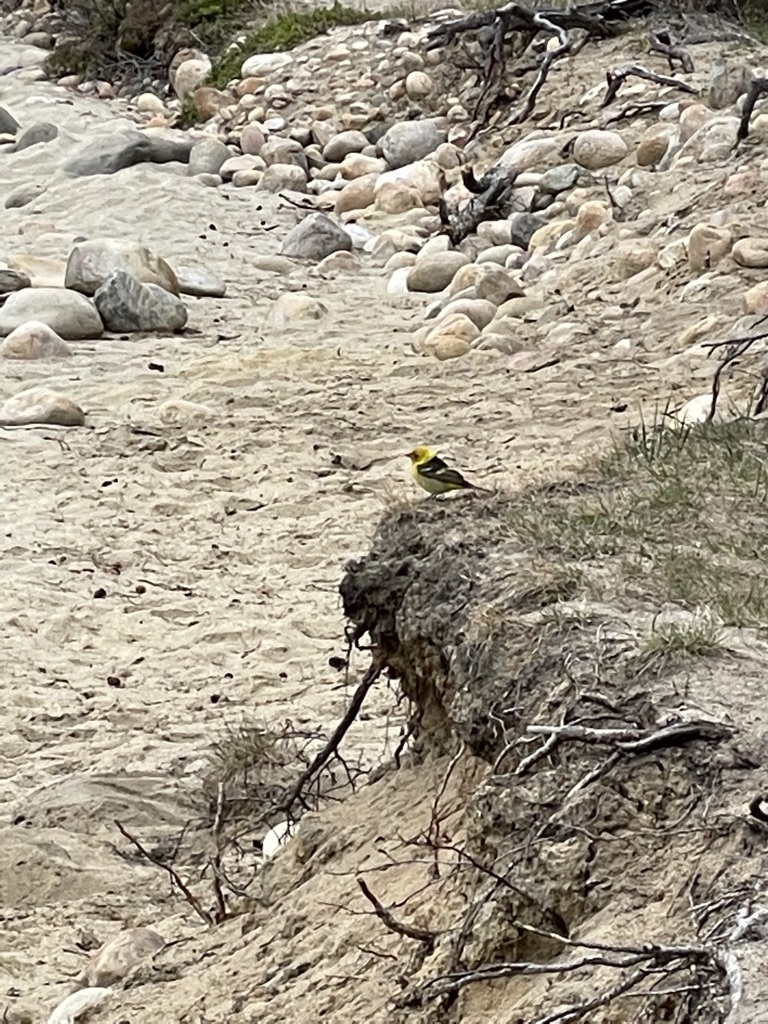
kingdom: Animalia
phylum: Chordata
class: Aves
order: Passeriformes
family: Cardinalidae
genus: Piranga
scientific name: Piranga ludoviciana
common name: Western tanager
